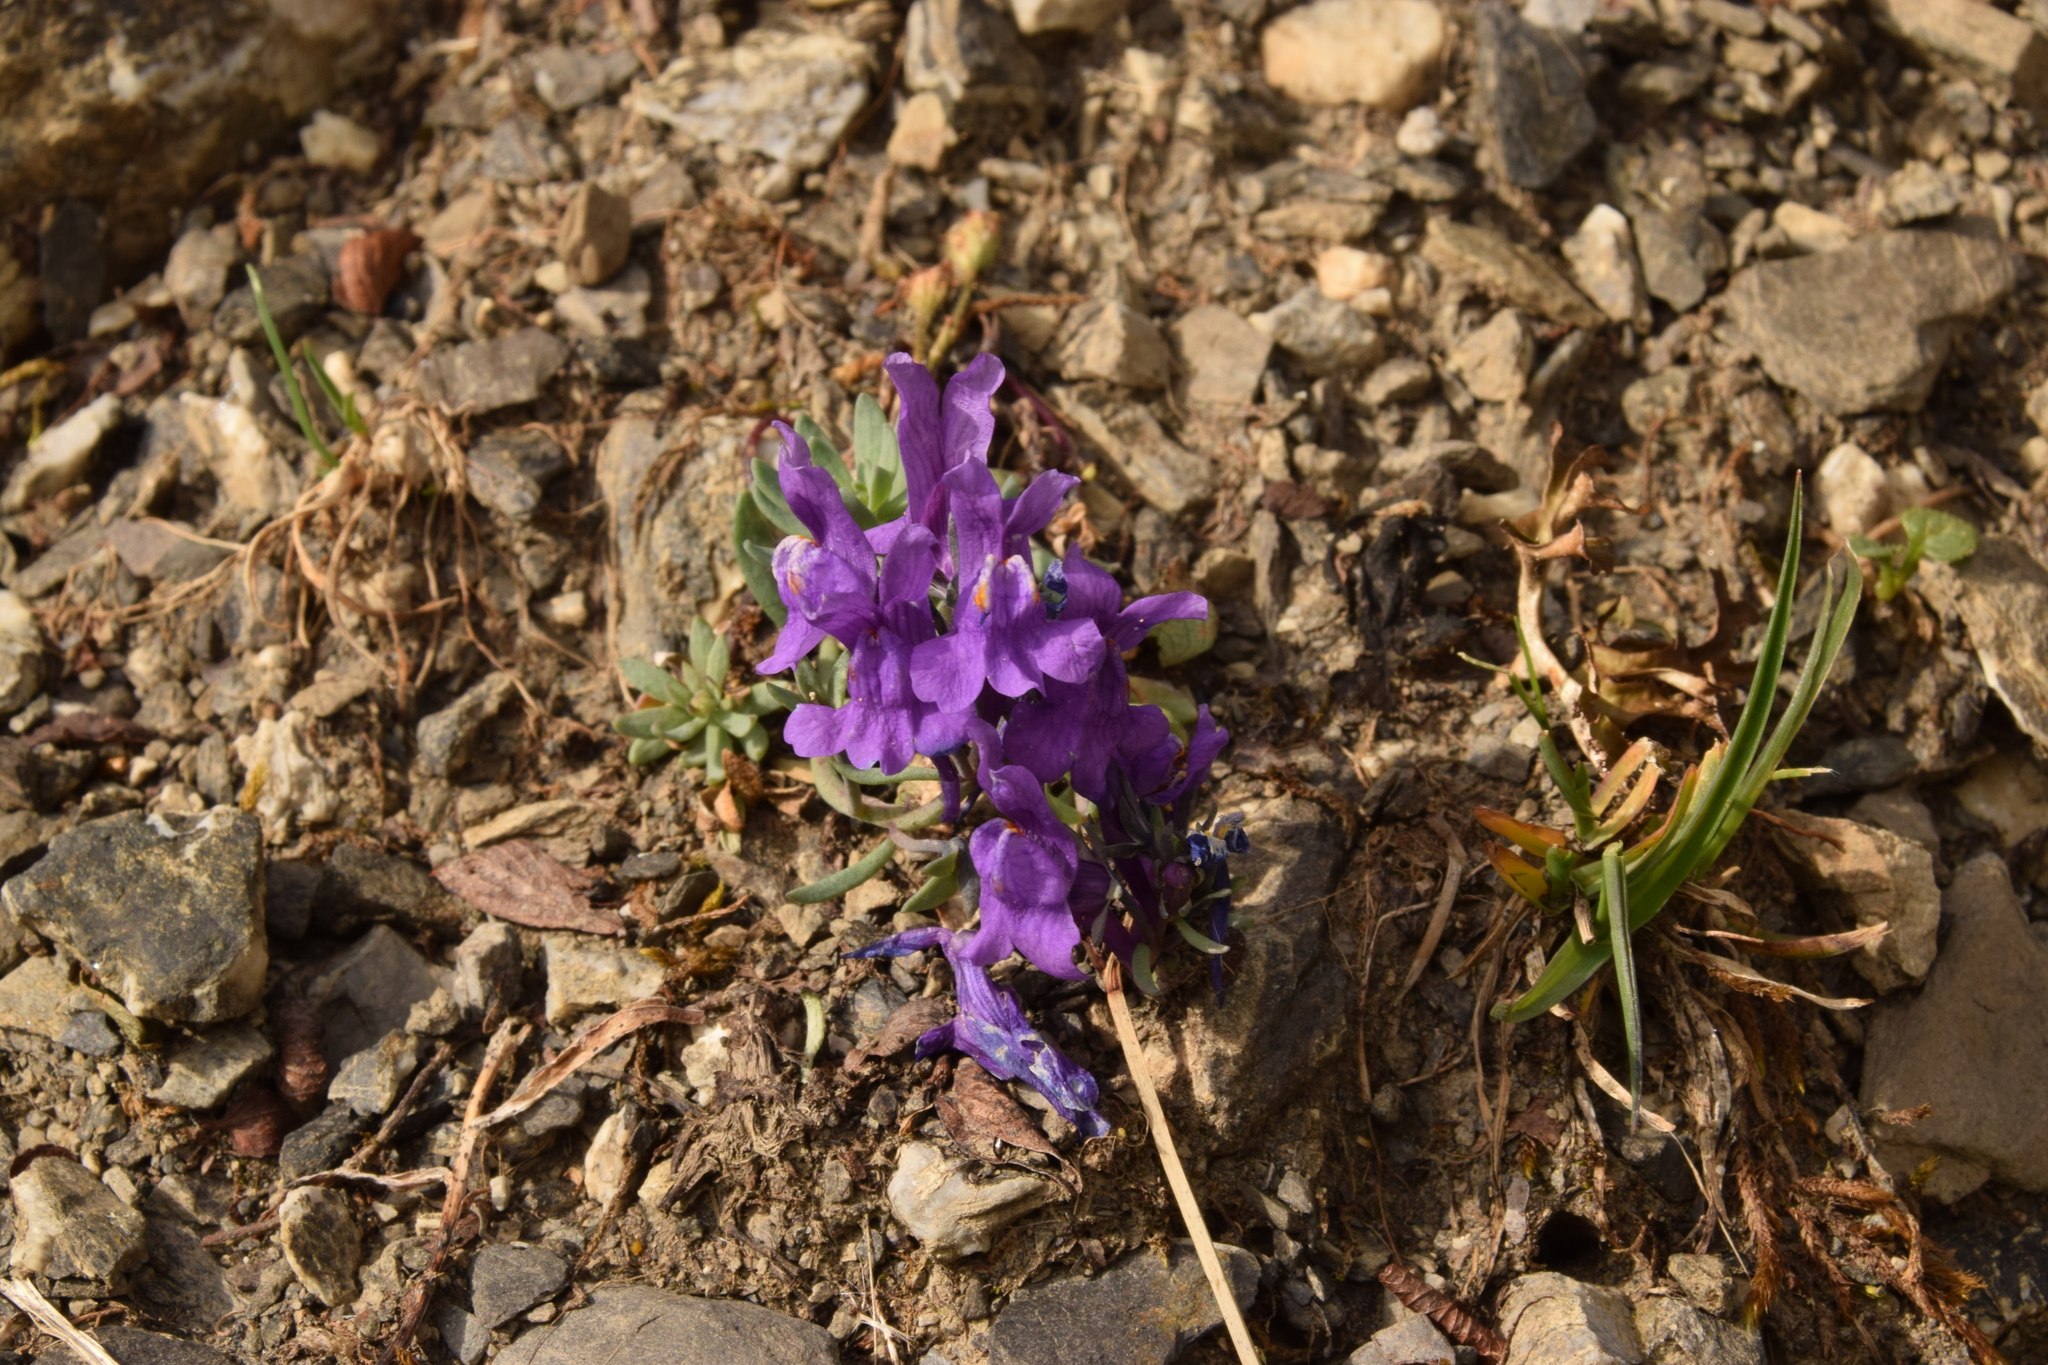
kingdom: Plantae
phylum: Tracheophyta
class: Magnoliopsida
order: Lamiales
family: Plantaginaceae
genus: Linaria
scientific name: Linaria alpina
